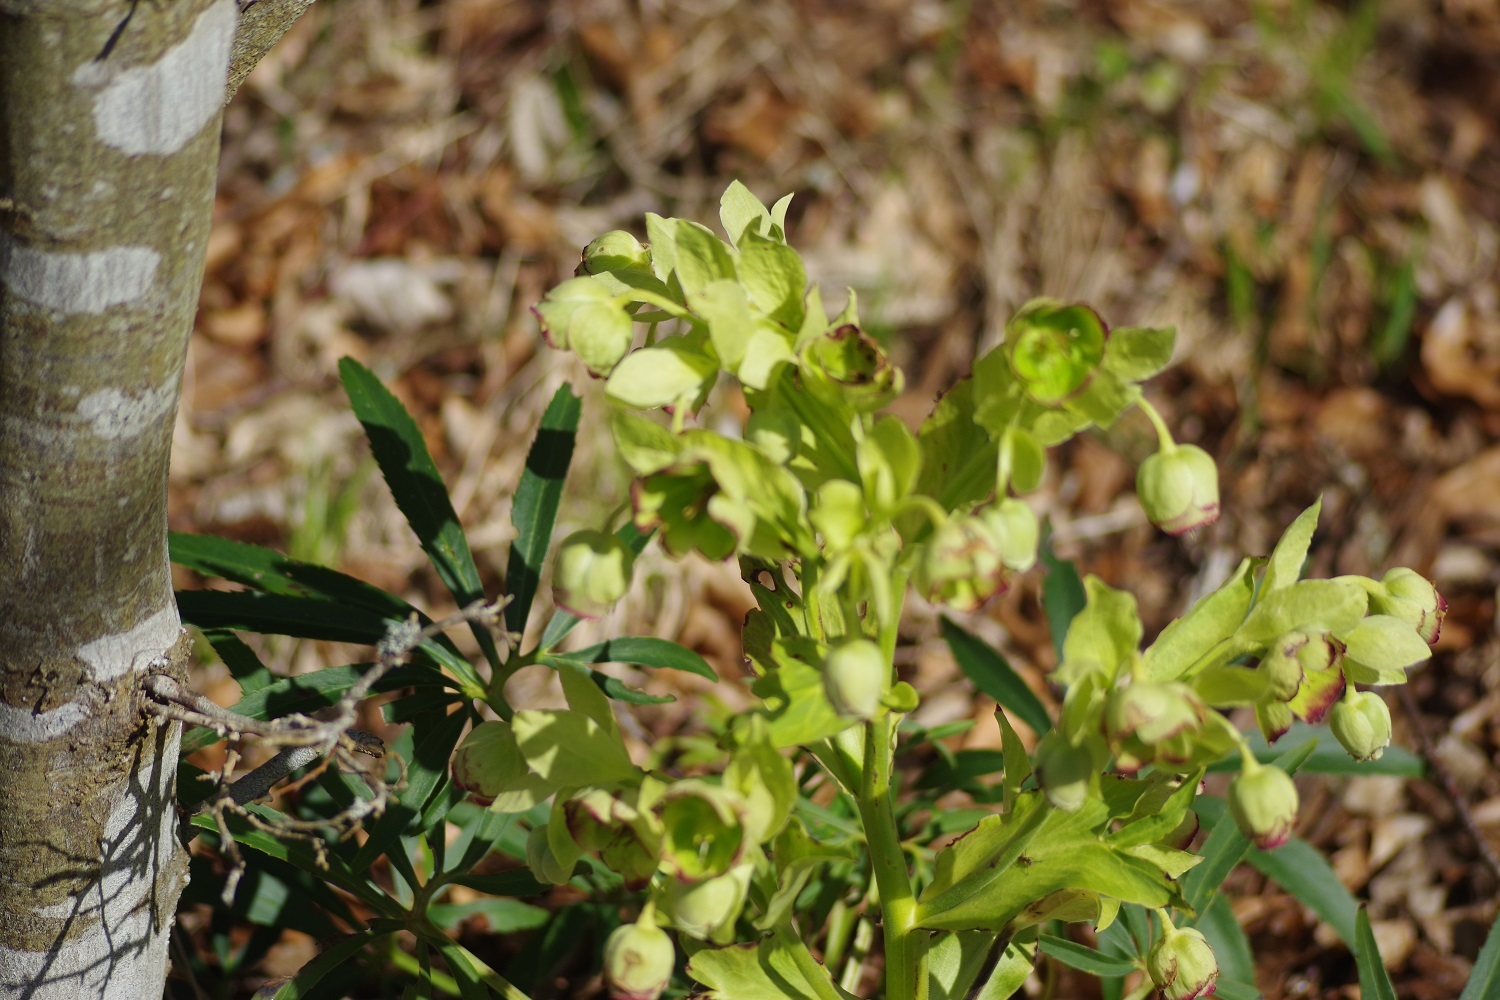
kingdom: Plantae
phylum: Tracheophyta
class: Magnoliopsida
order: Ranunculales
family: Ranunculaceae
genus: Helleborus
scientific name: Helleborus foetidus
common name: Stinking hellebore
